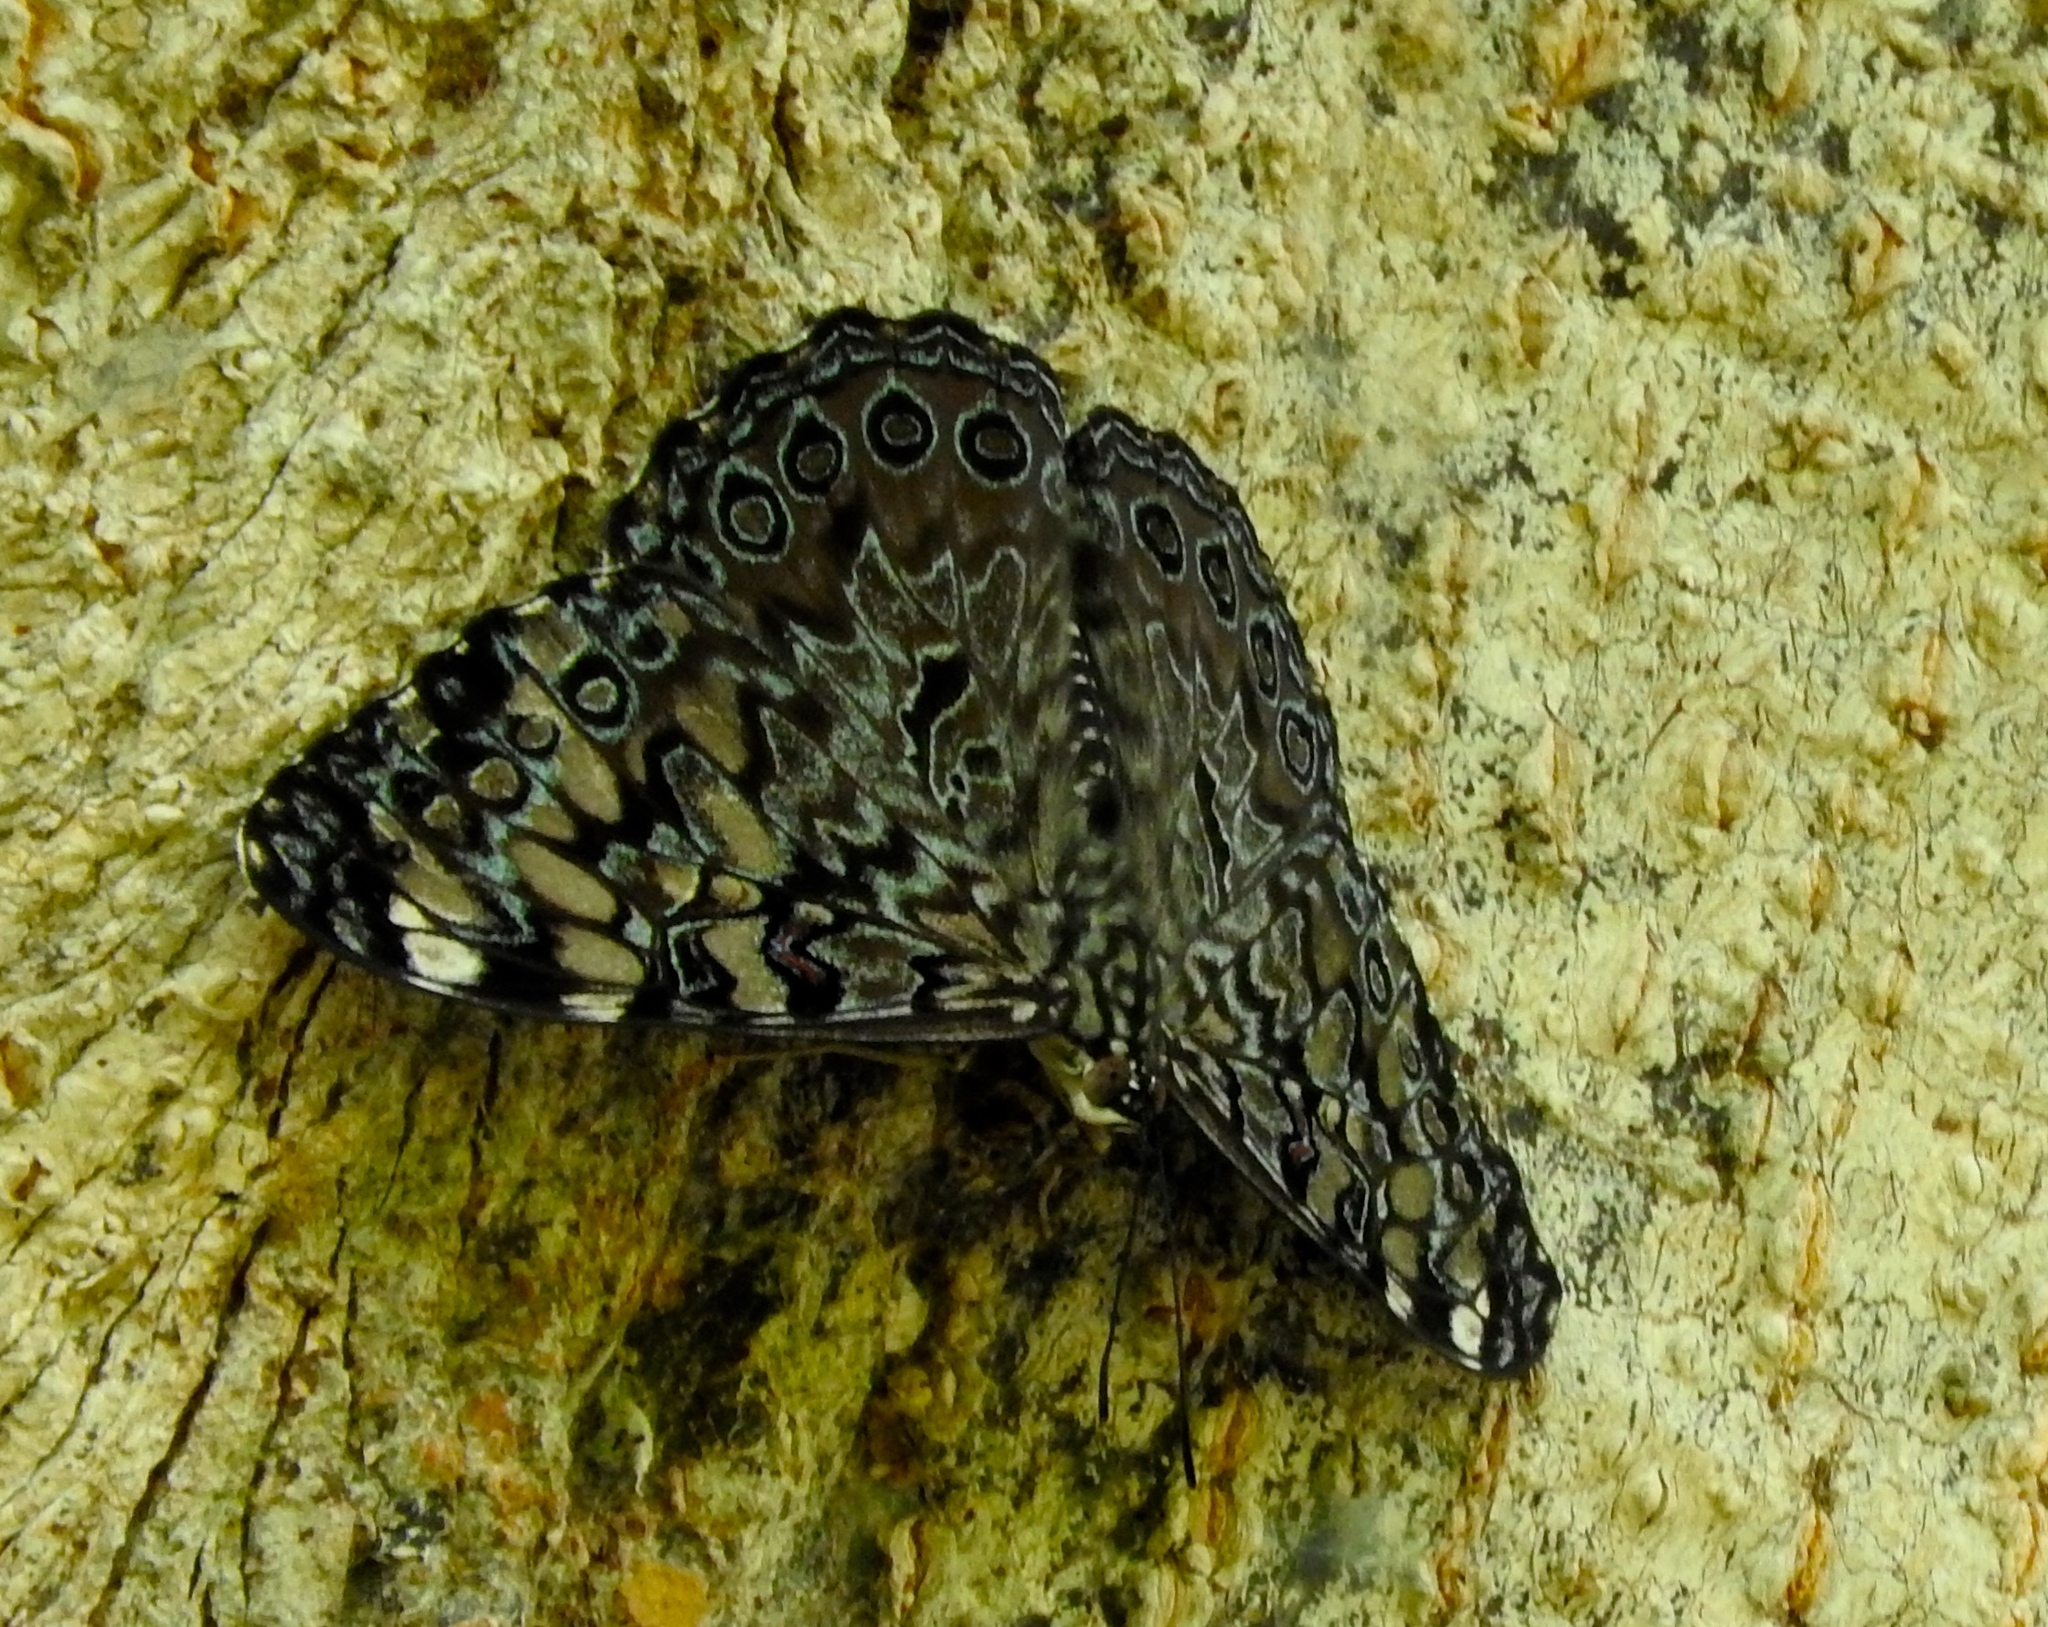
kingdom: Animalia
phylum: Arthropoda
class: Insecta
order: Lepidoptera
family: Nymphalidae
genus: Hamadryas
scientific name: Hamadryas guatemalena
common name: Guatemalan cracker
